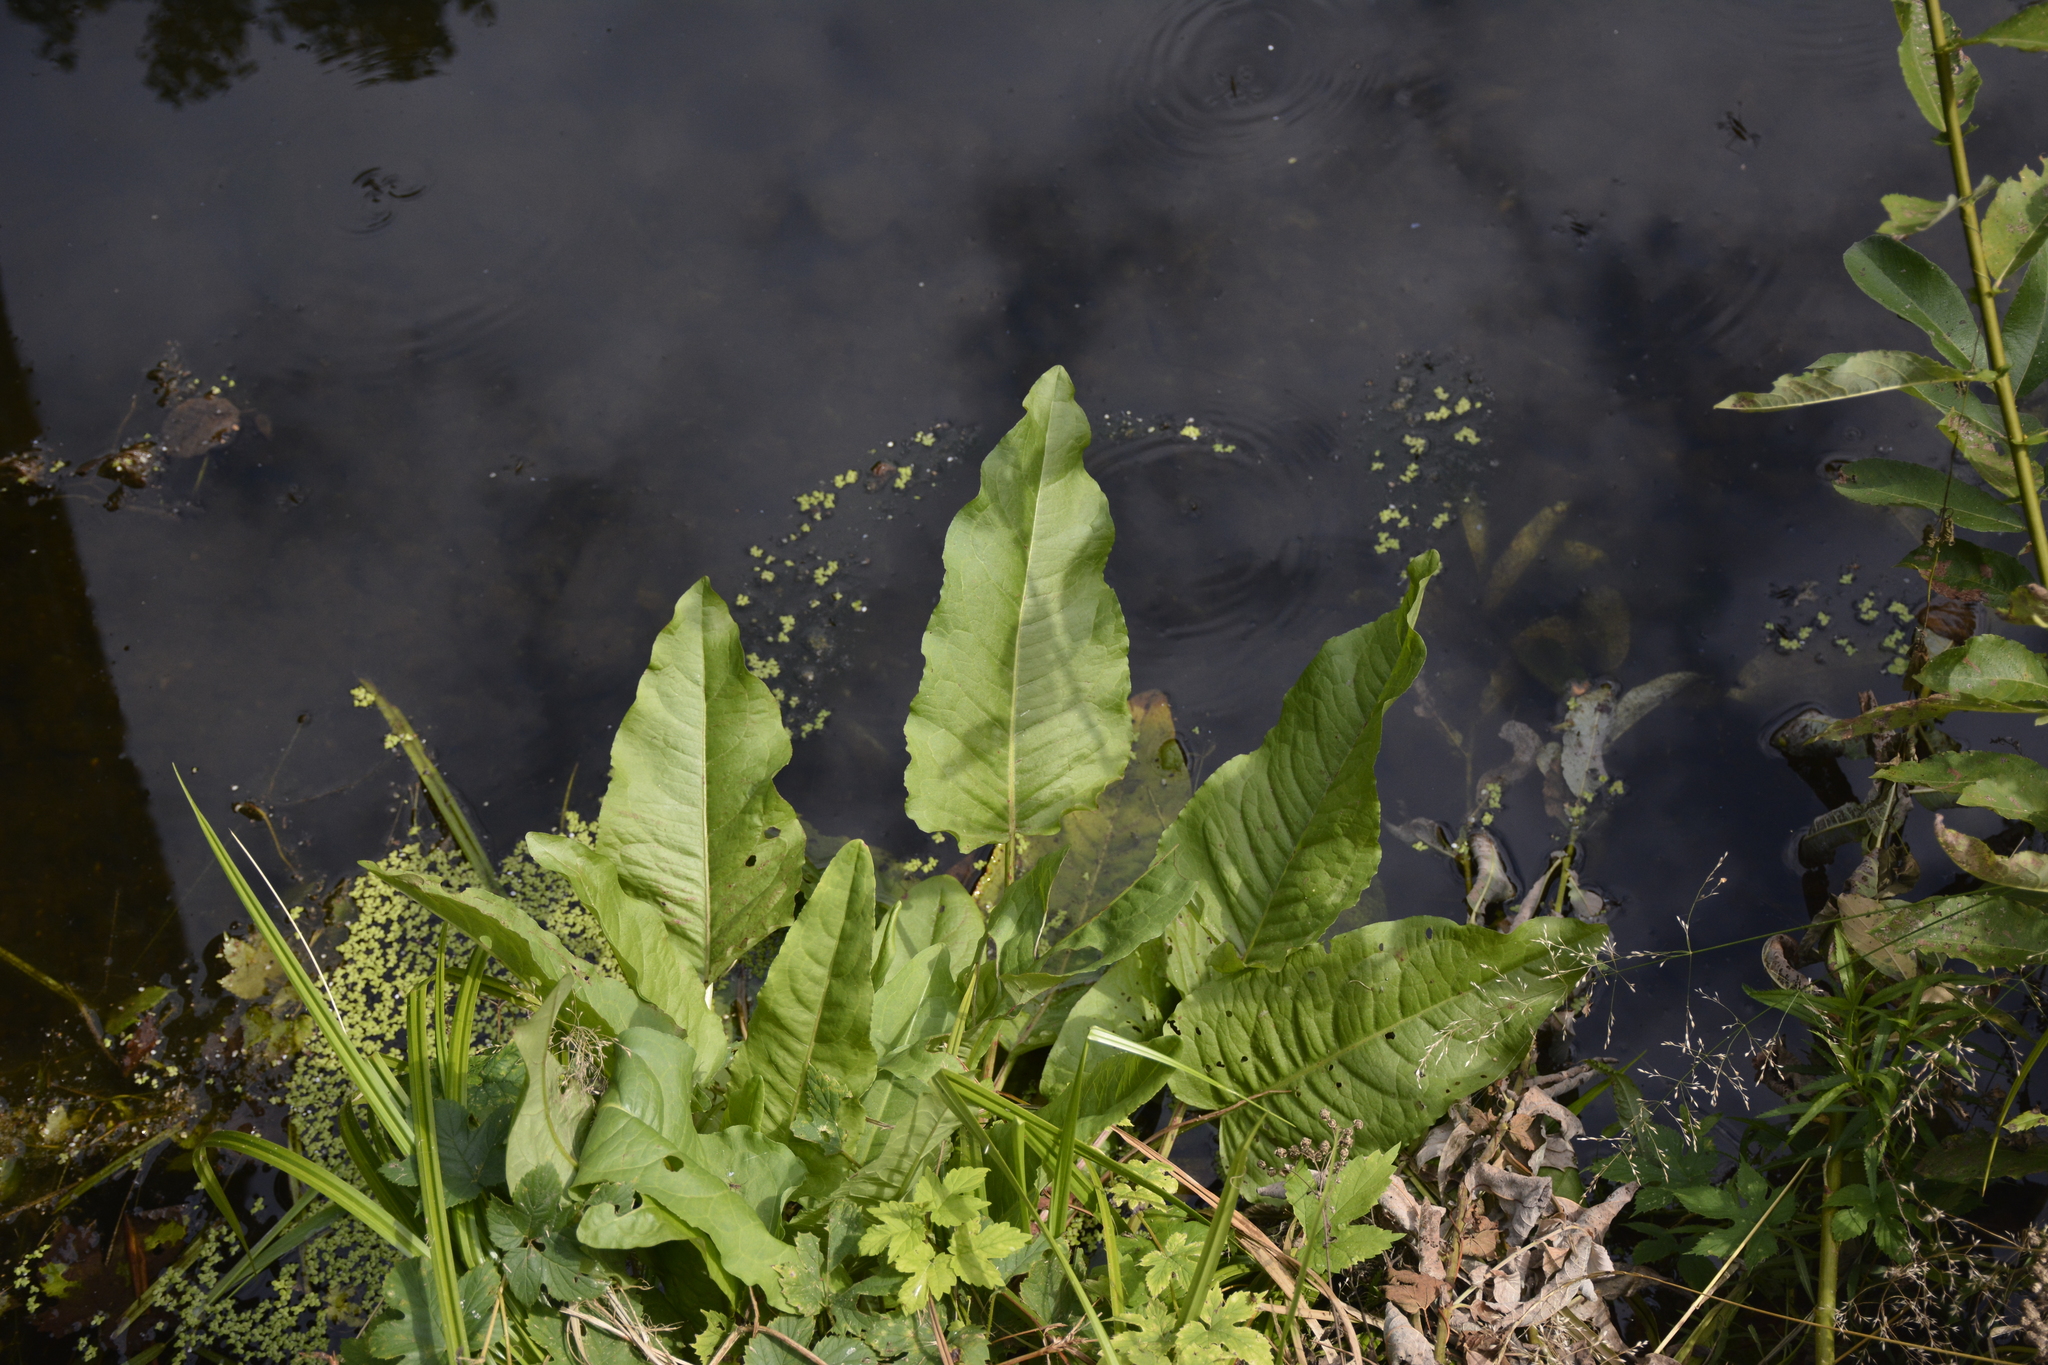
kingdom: Plantae
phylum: Tracheophyta
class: Magnoliopsida
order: Caryophyllales
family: Polygonaceae
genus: Rumex
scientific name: Rumex aquaticus
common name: Scottish dock
